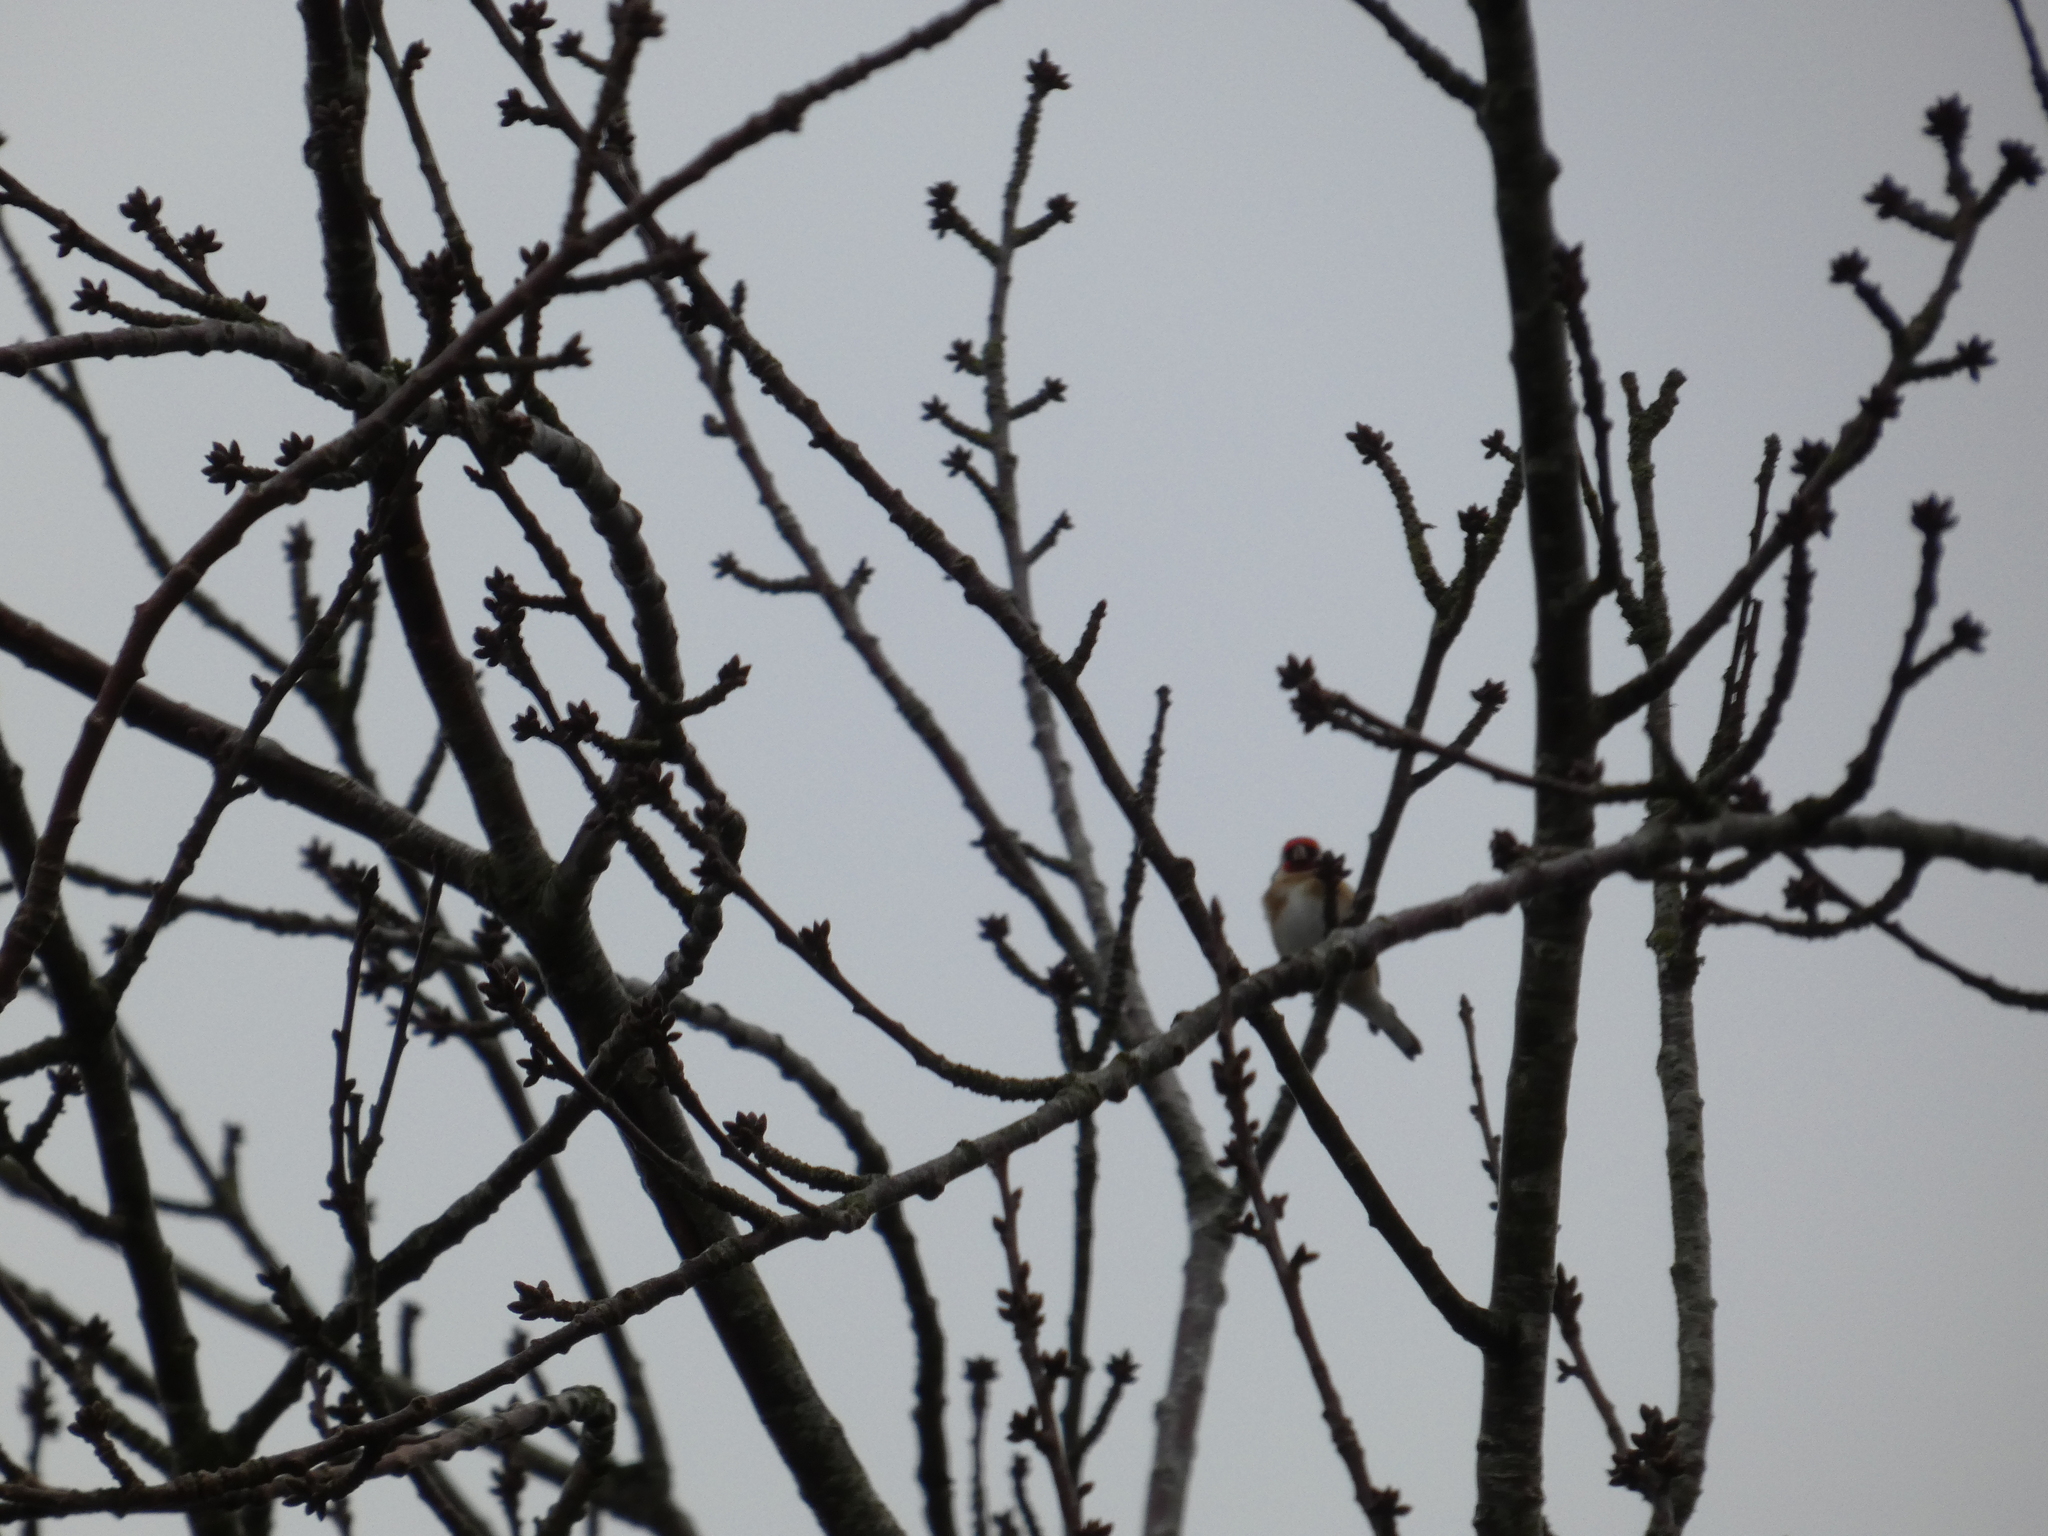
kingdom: Animalia
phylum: Chordata
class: Aves
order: Passeriformes
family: Fringillidae
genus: Carduelis
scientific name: Carduelis carduelis
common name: European goldfinch
